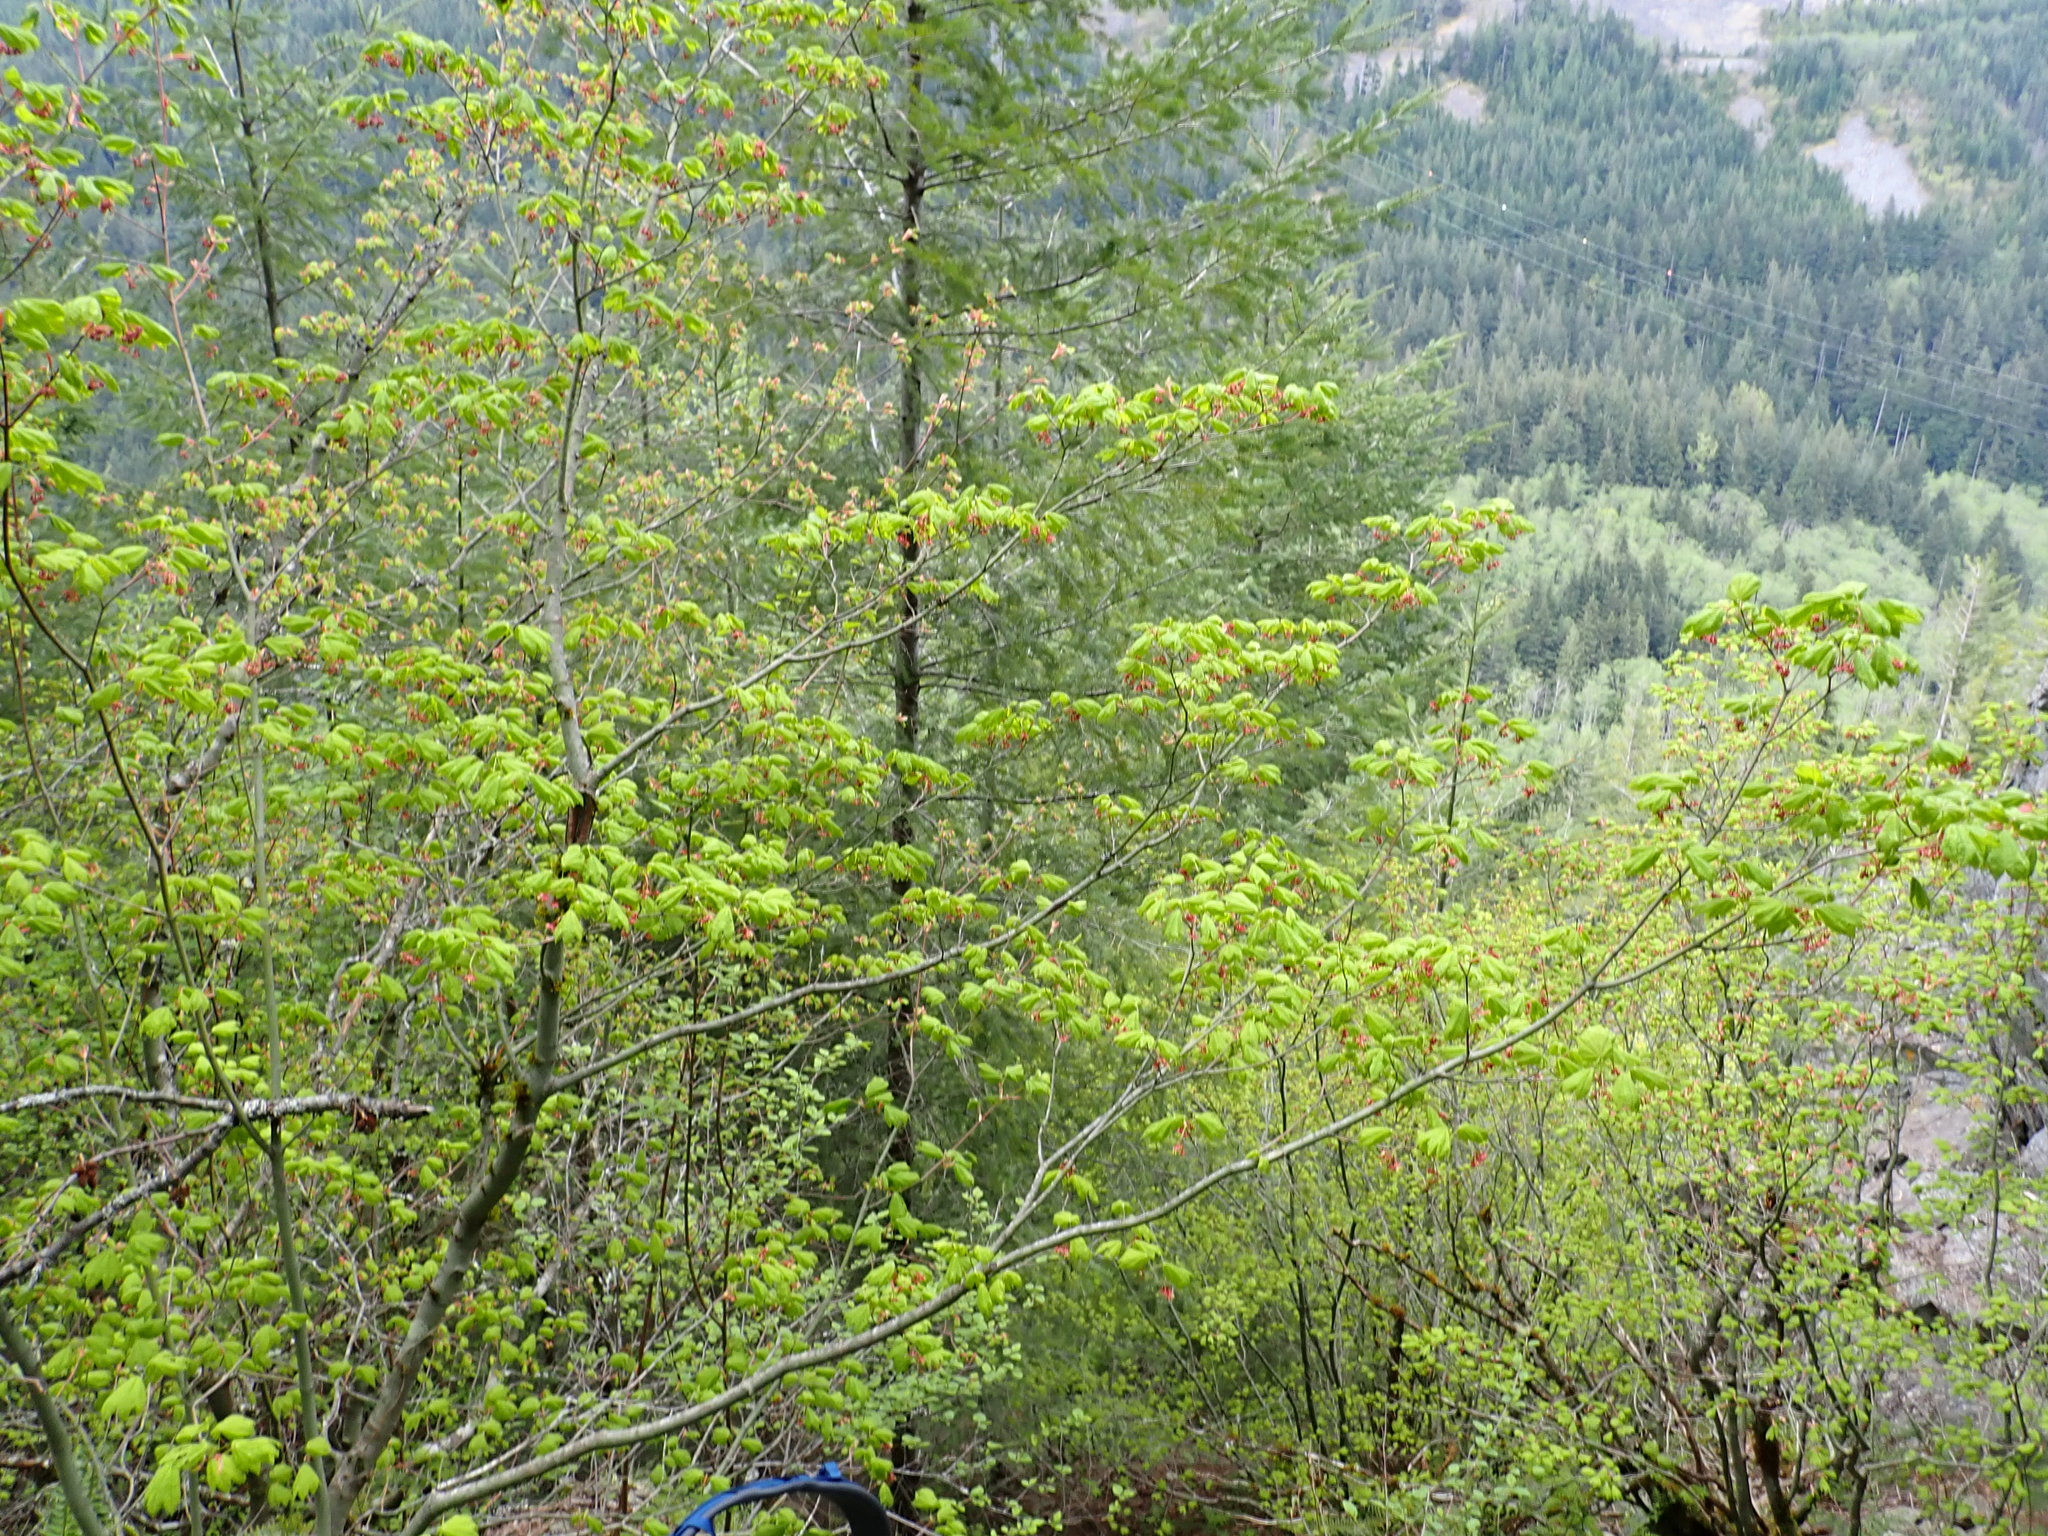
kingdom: Plantae
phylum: Tracheophyta
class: Magnoliopsida
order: Sapindales
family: Sapindaceae
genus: Acer
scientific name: Acer circinatum
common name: Vine maple
